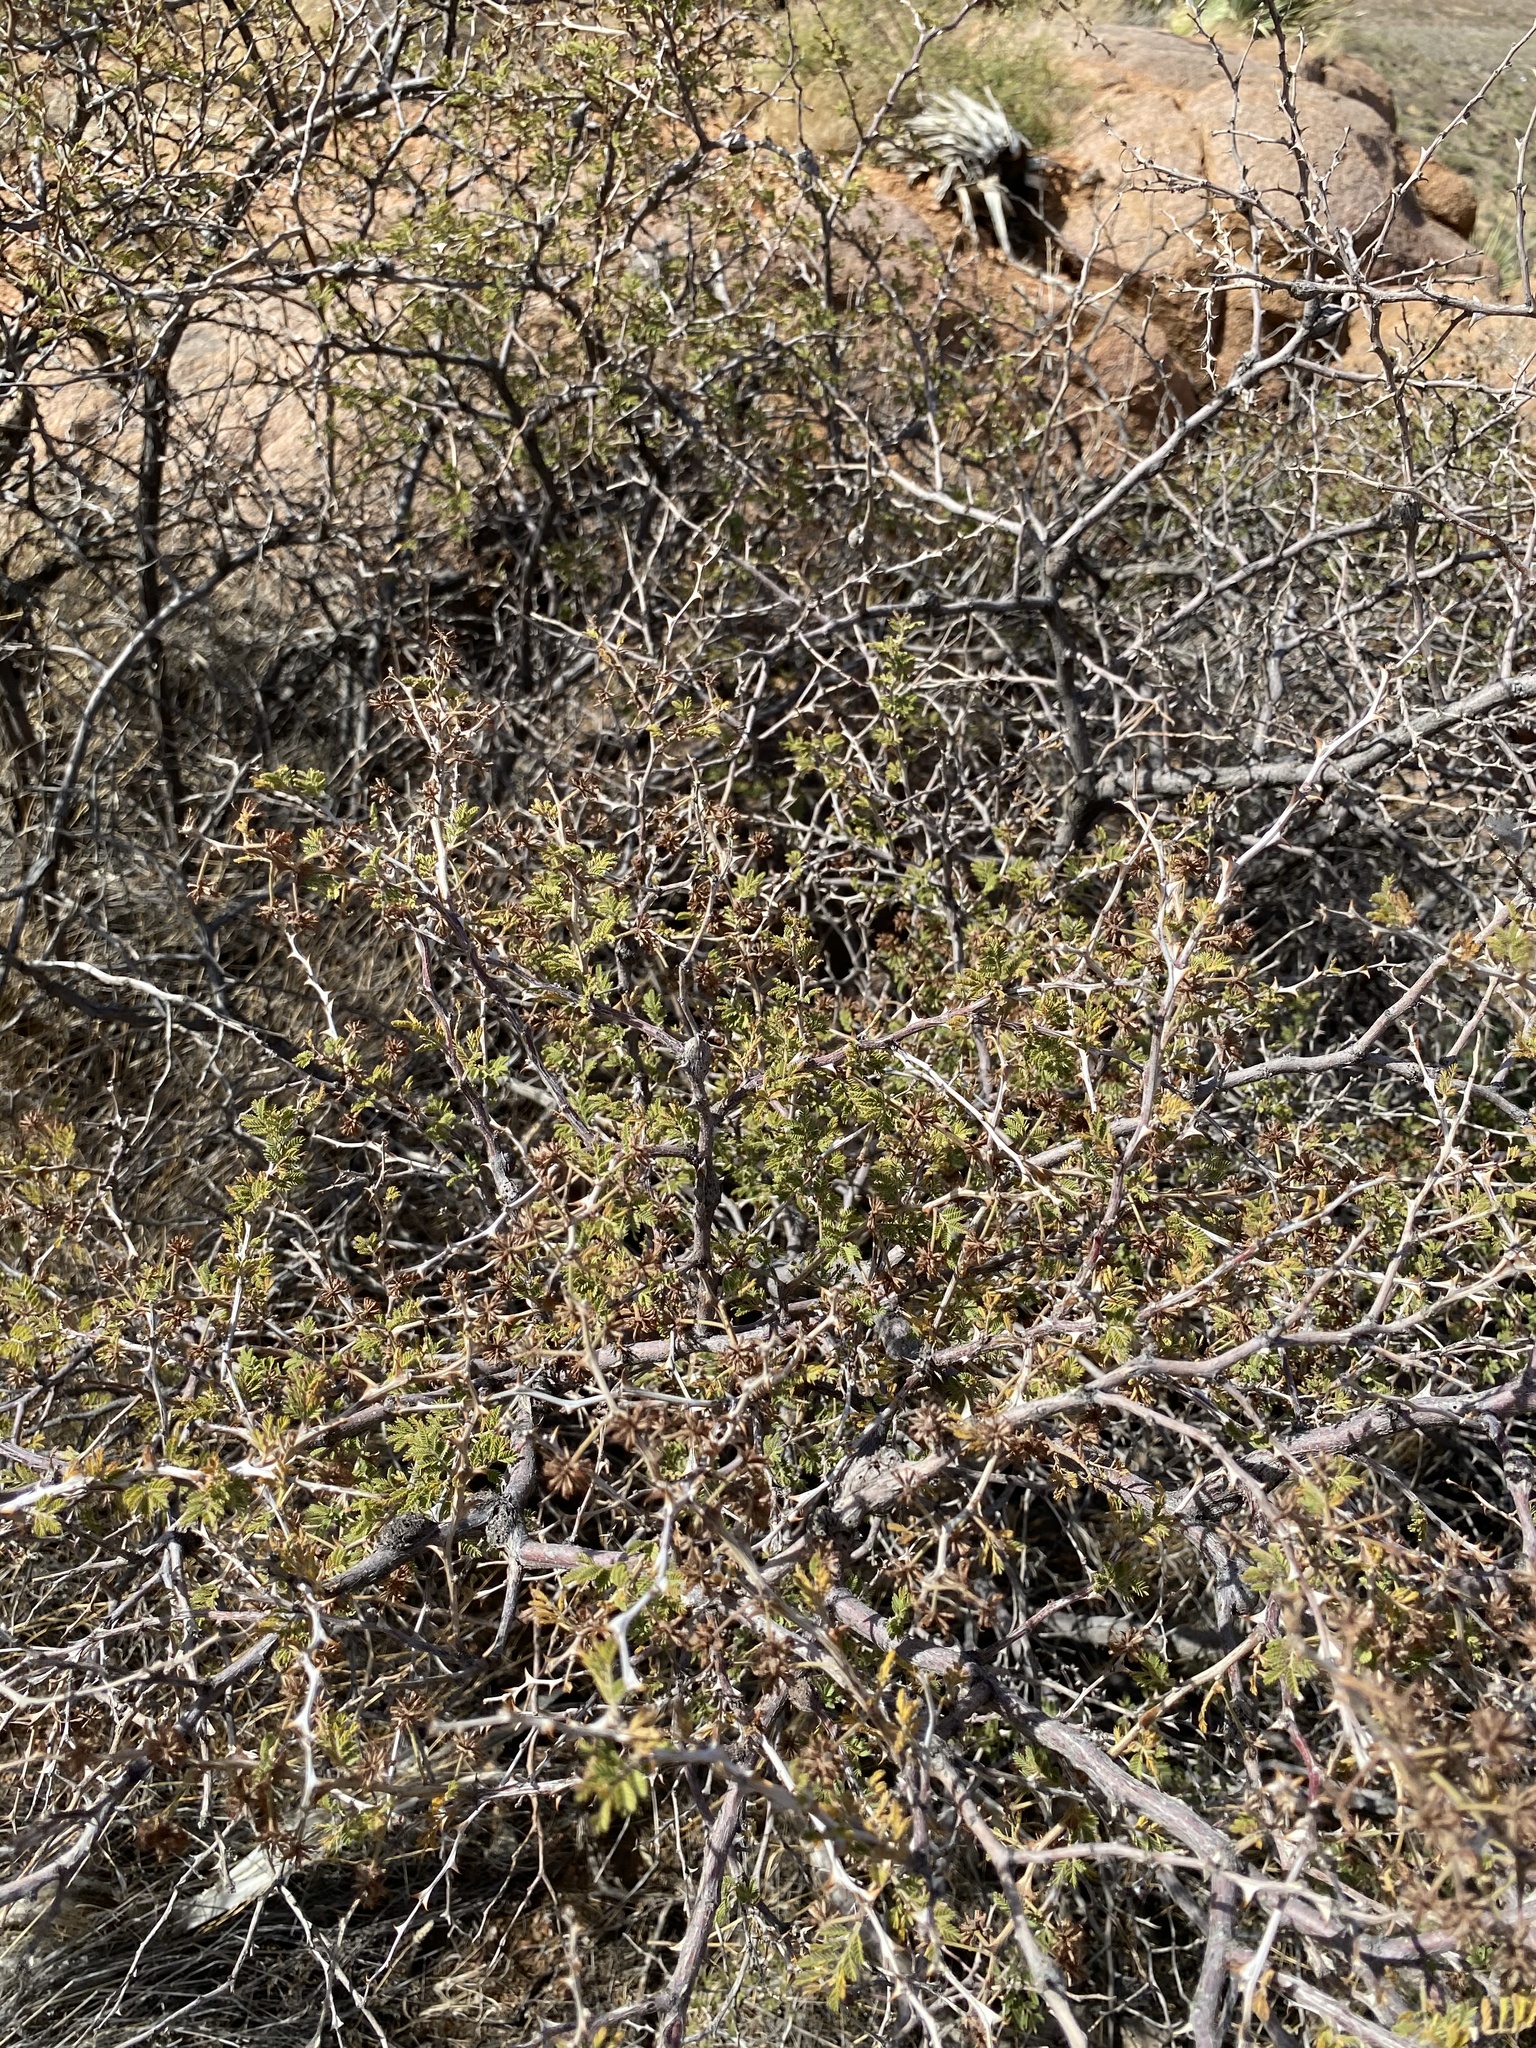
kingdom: Plantae
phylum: Tracheophyta
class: Magnoliopsida
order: Fabales
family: Fabaceae
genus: Mimosa
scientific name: Mimosa aculeaticarpa
